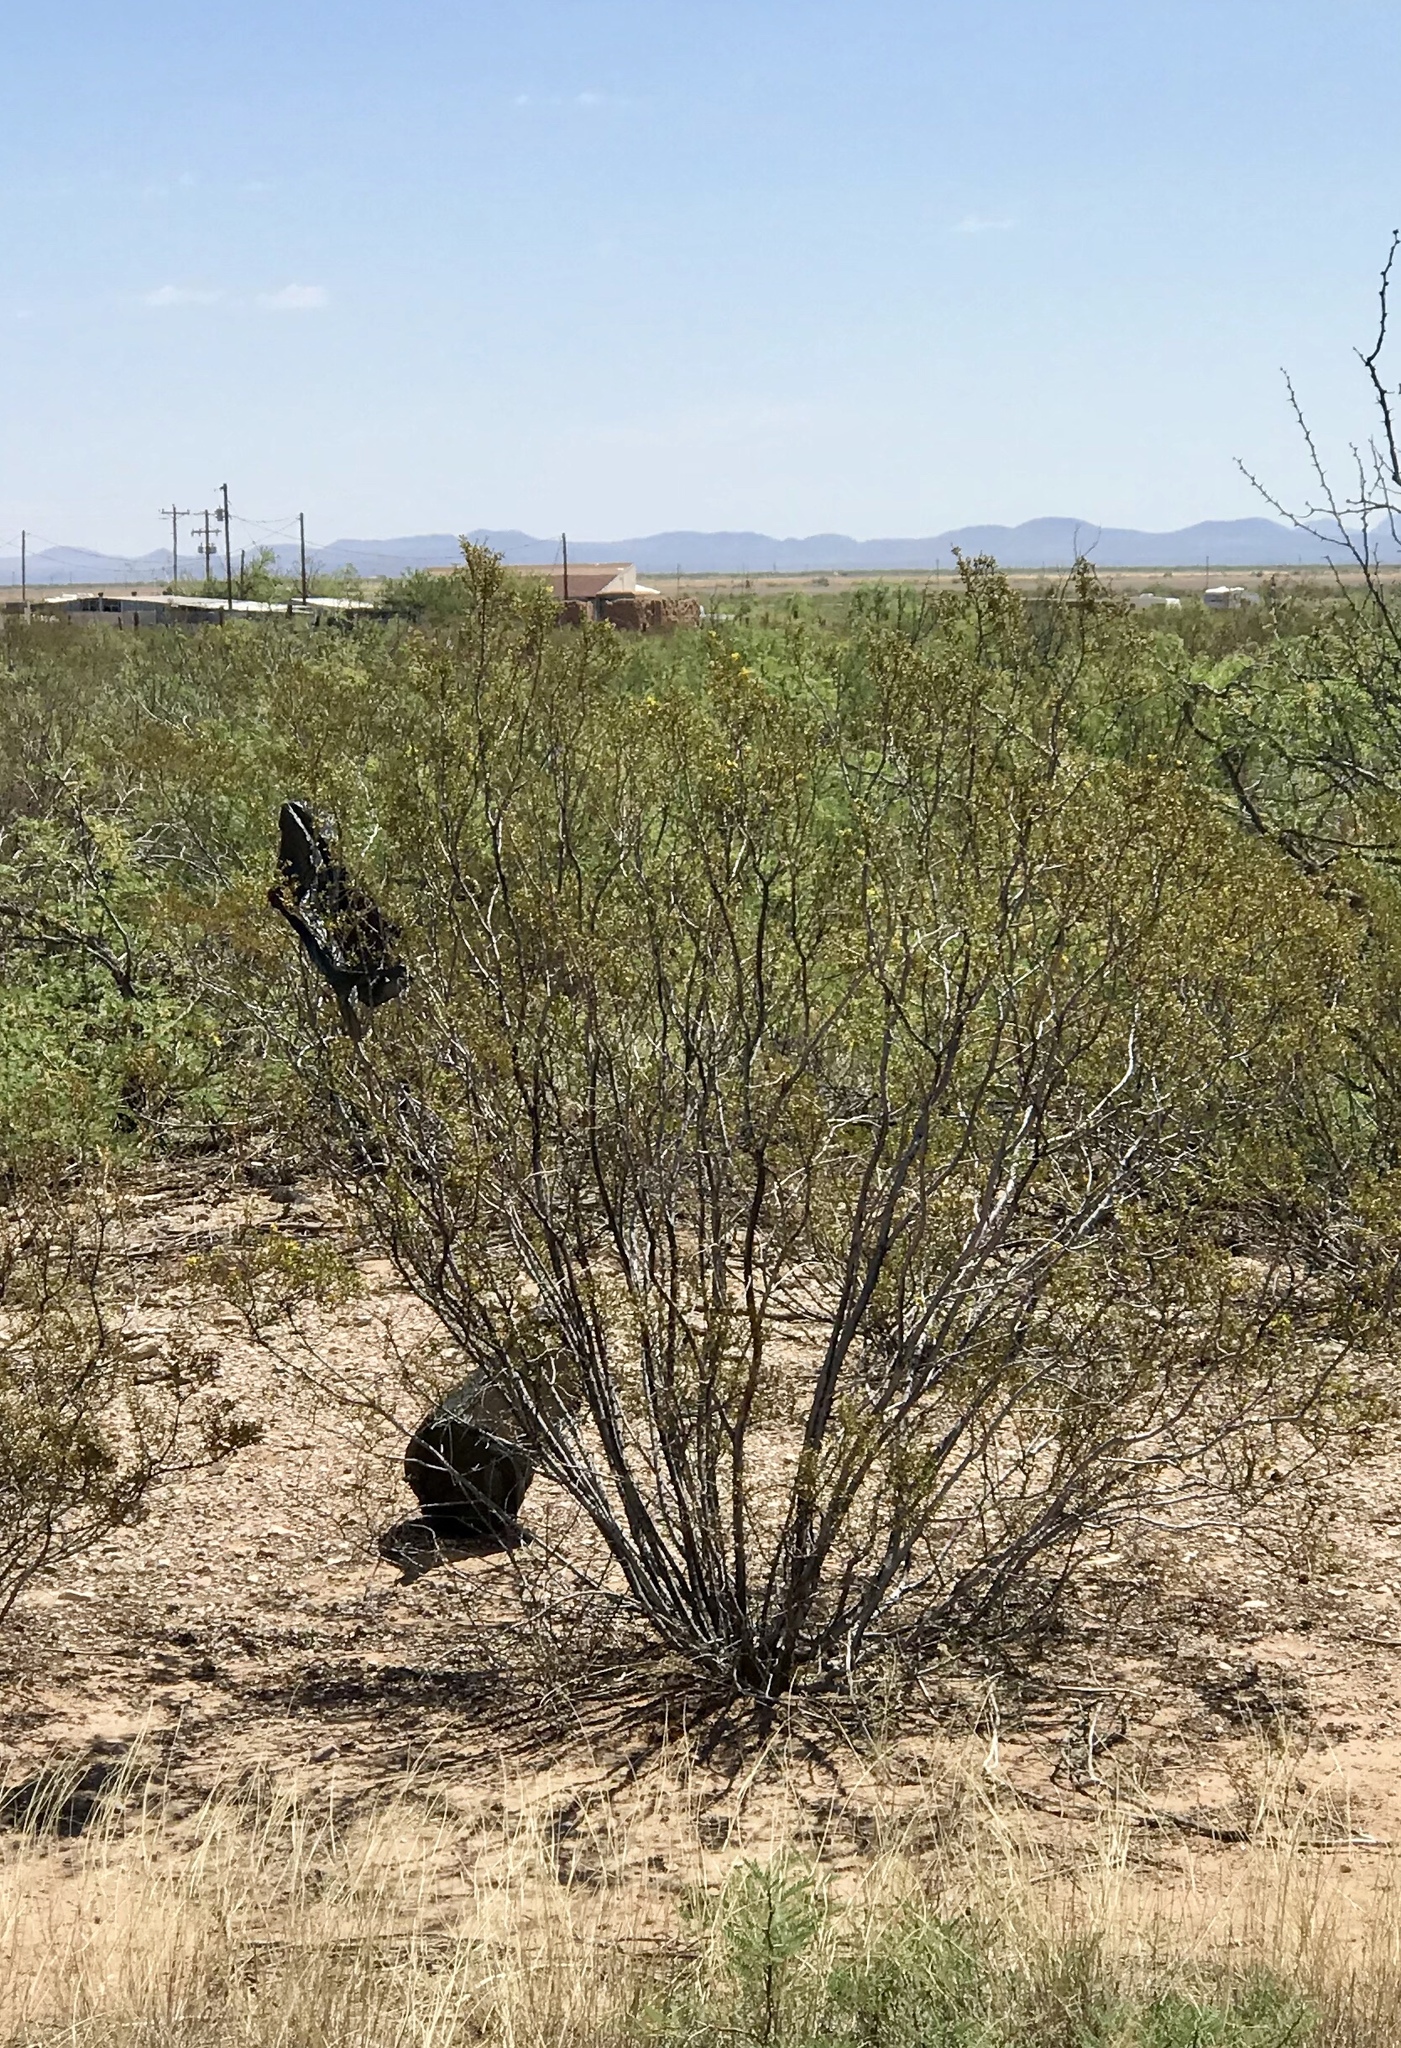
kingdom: Plantae
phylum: Tracheophyta
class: Magnoliopsida
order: Zygophyllales
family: Zygophyllaceae
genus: Larrea
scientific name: Larrea tridentata
